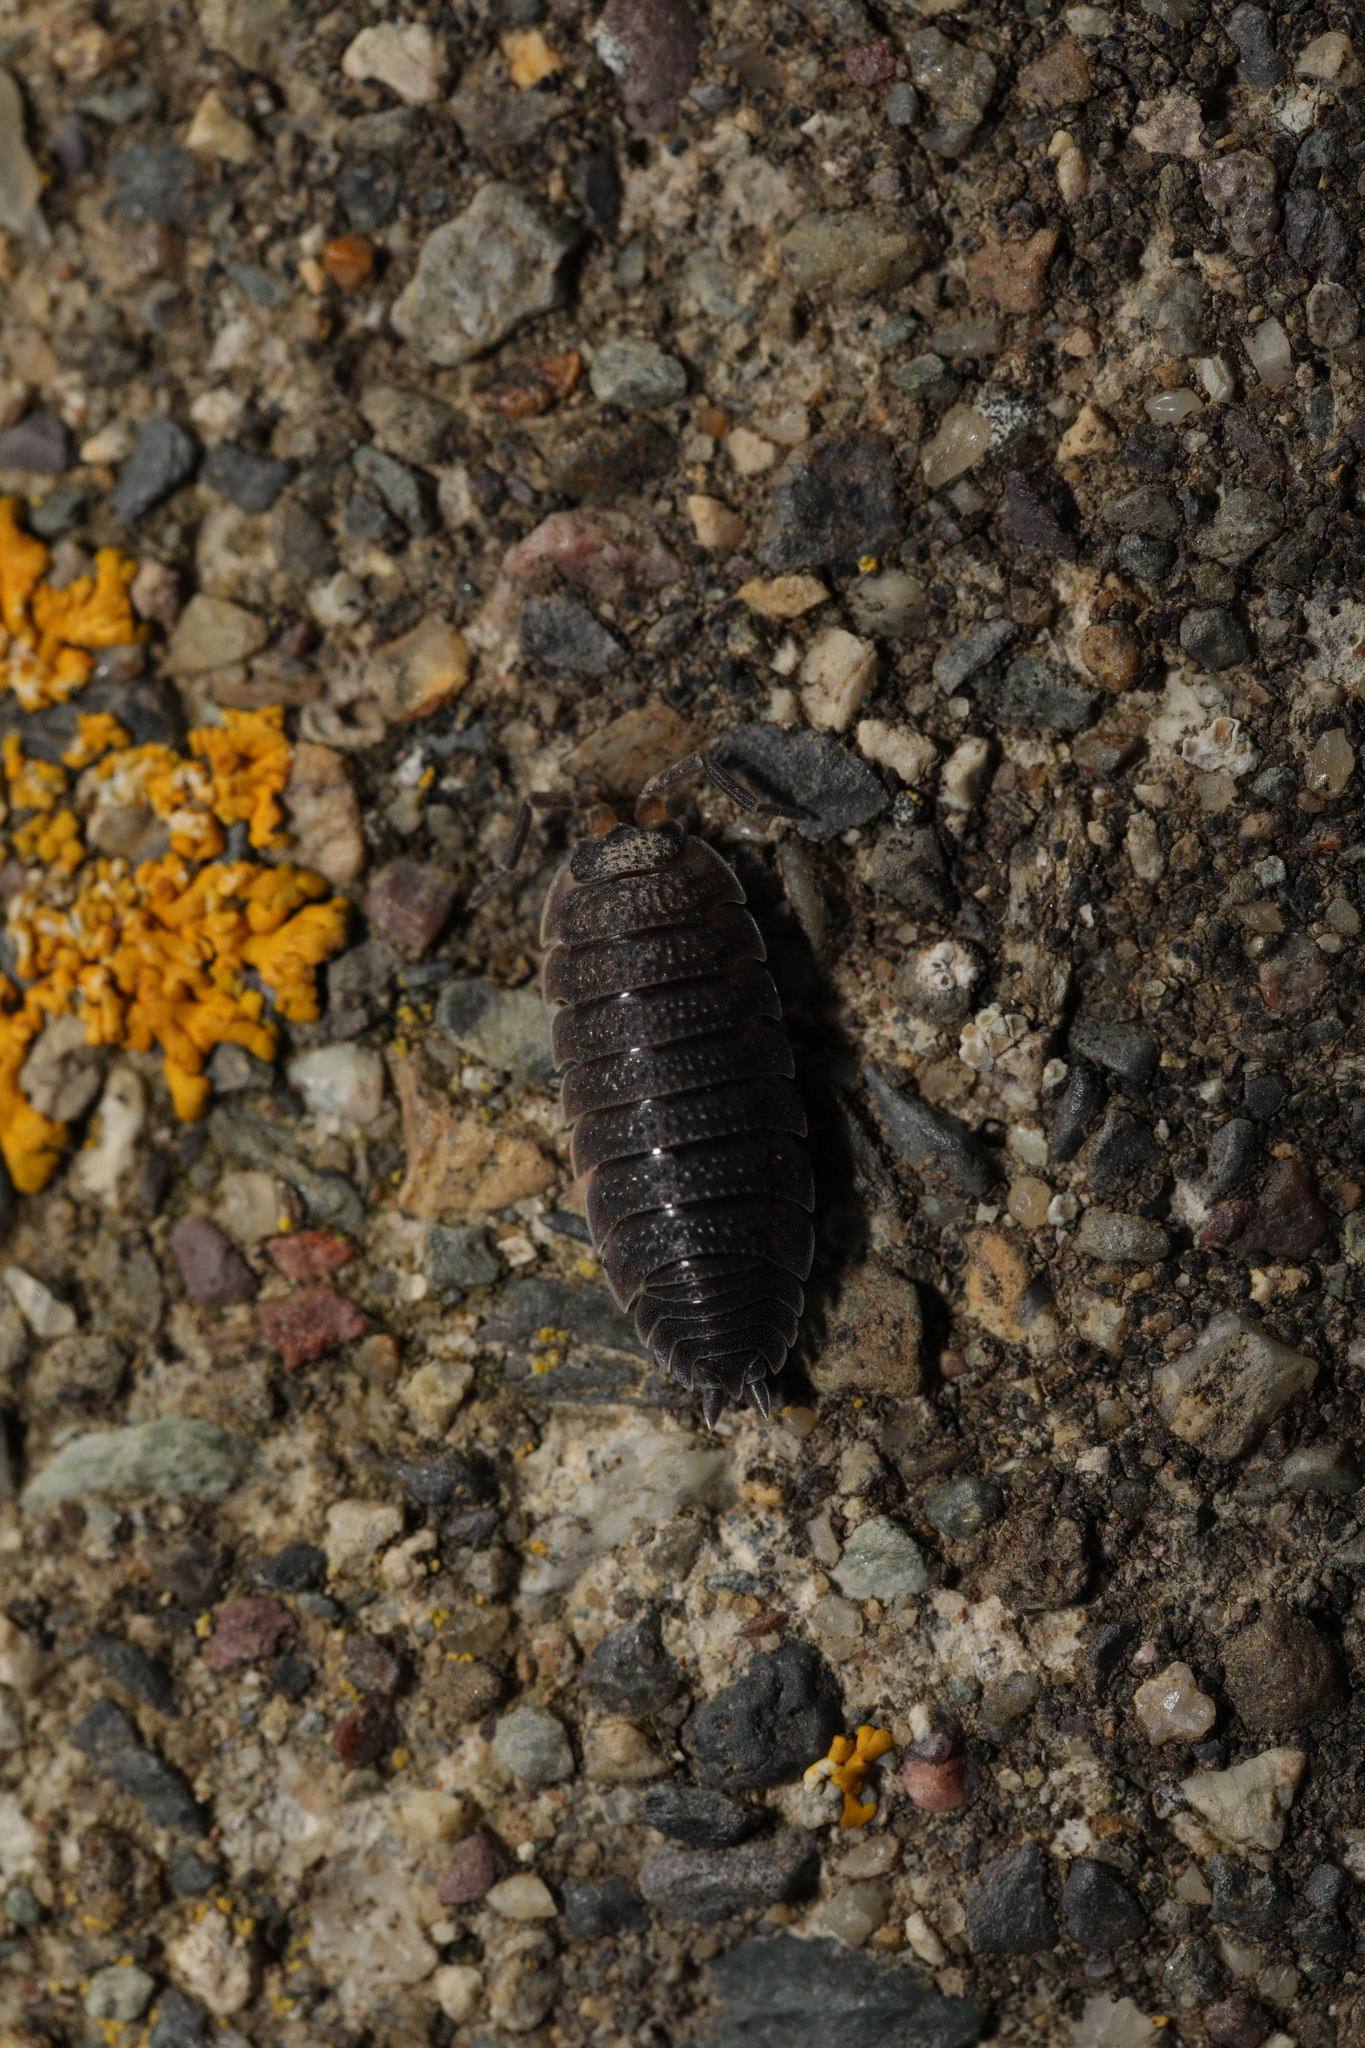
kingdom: Animalia
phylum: Arthropoda
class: Malacostraca
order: Isopoda
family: Porcellionidae
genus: Porcellio
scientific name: Porcellio scaber
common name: Common rough woodlouse
